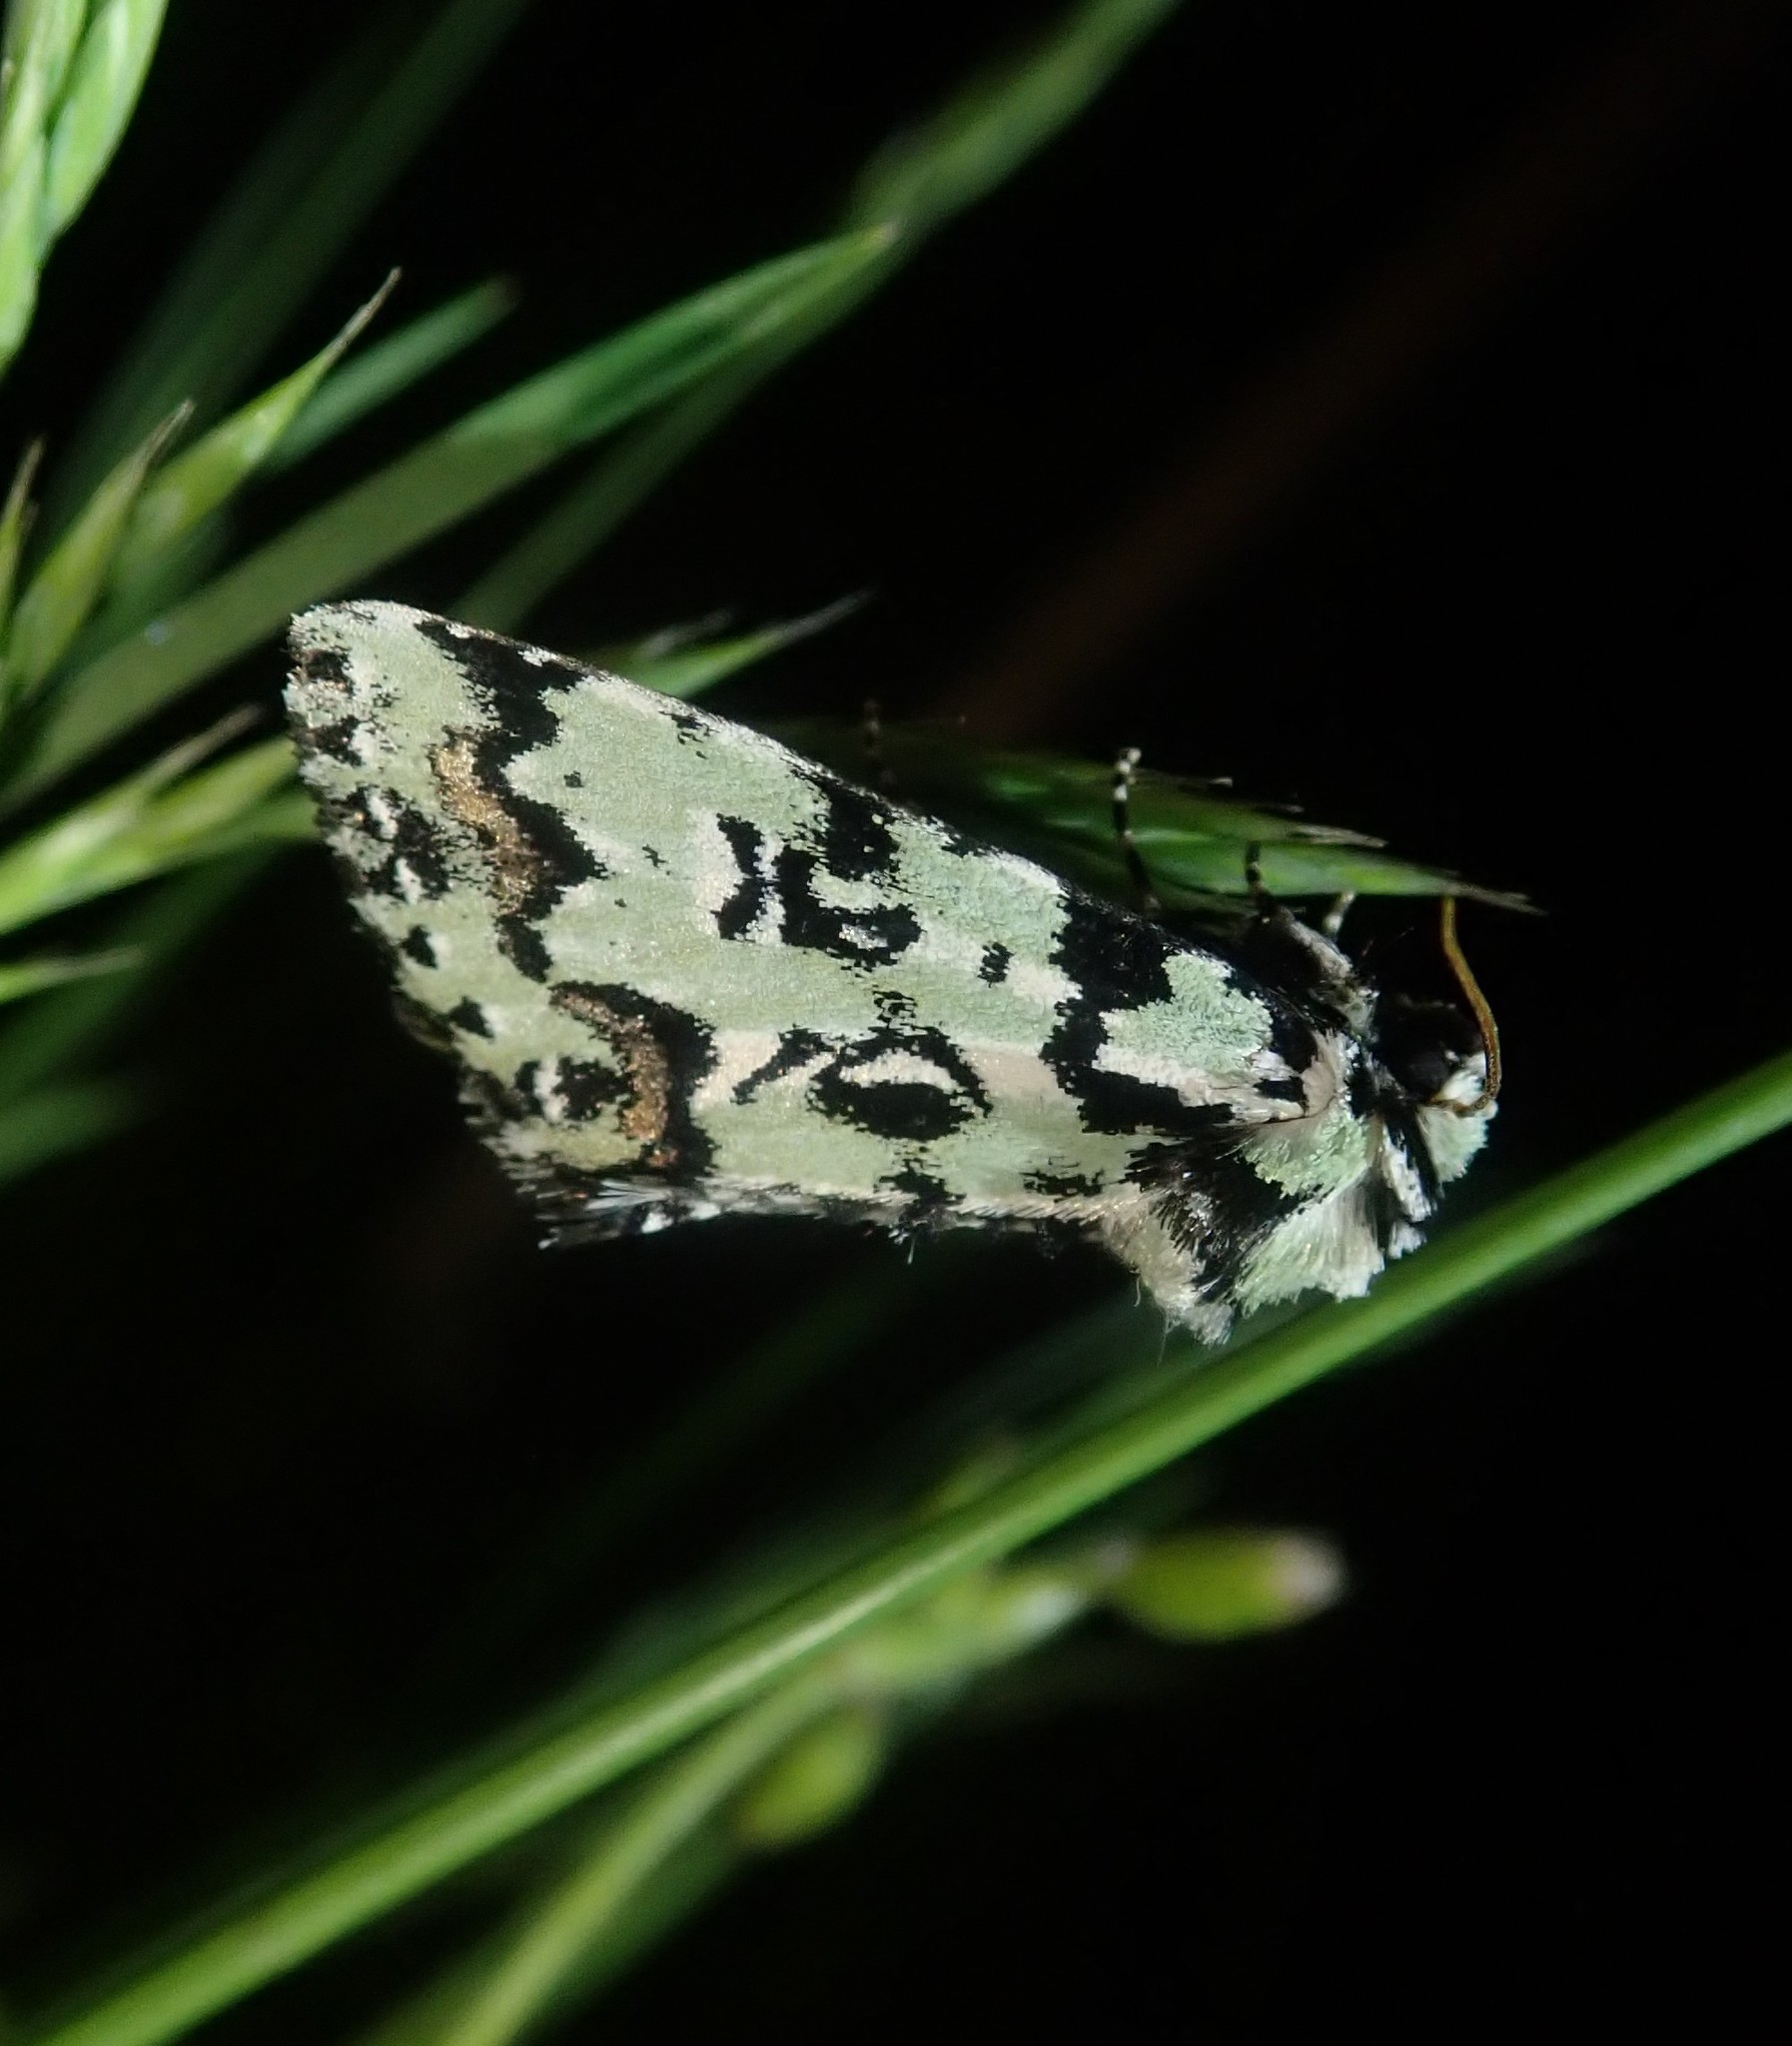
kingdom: Animalia
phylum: Arthropoda
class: Insecta
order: Lepidoptera
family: Noctuidae
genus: Moma
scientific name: Moma alpium
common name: Scarce merveille du jour
